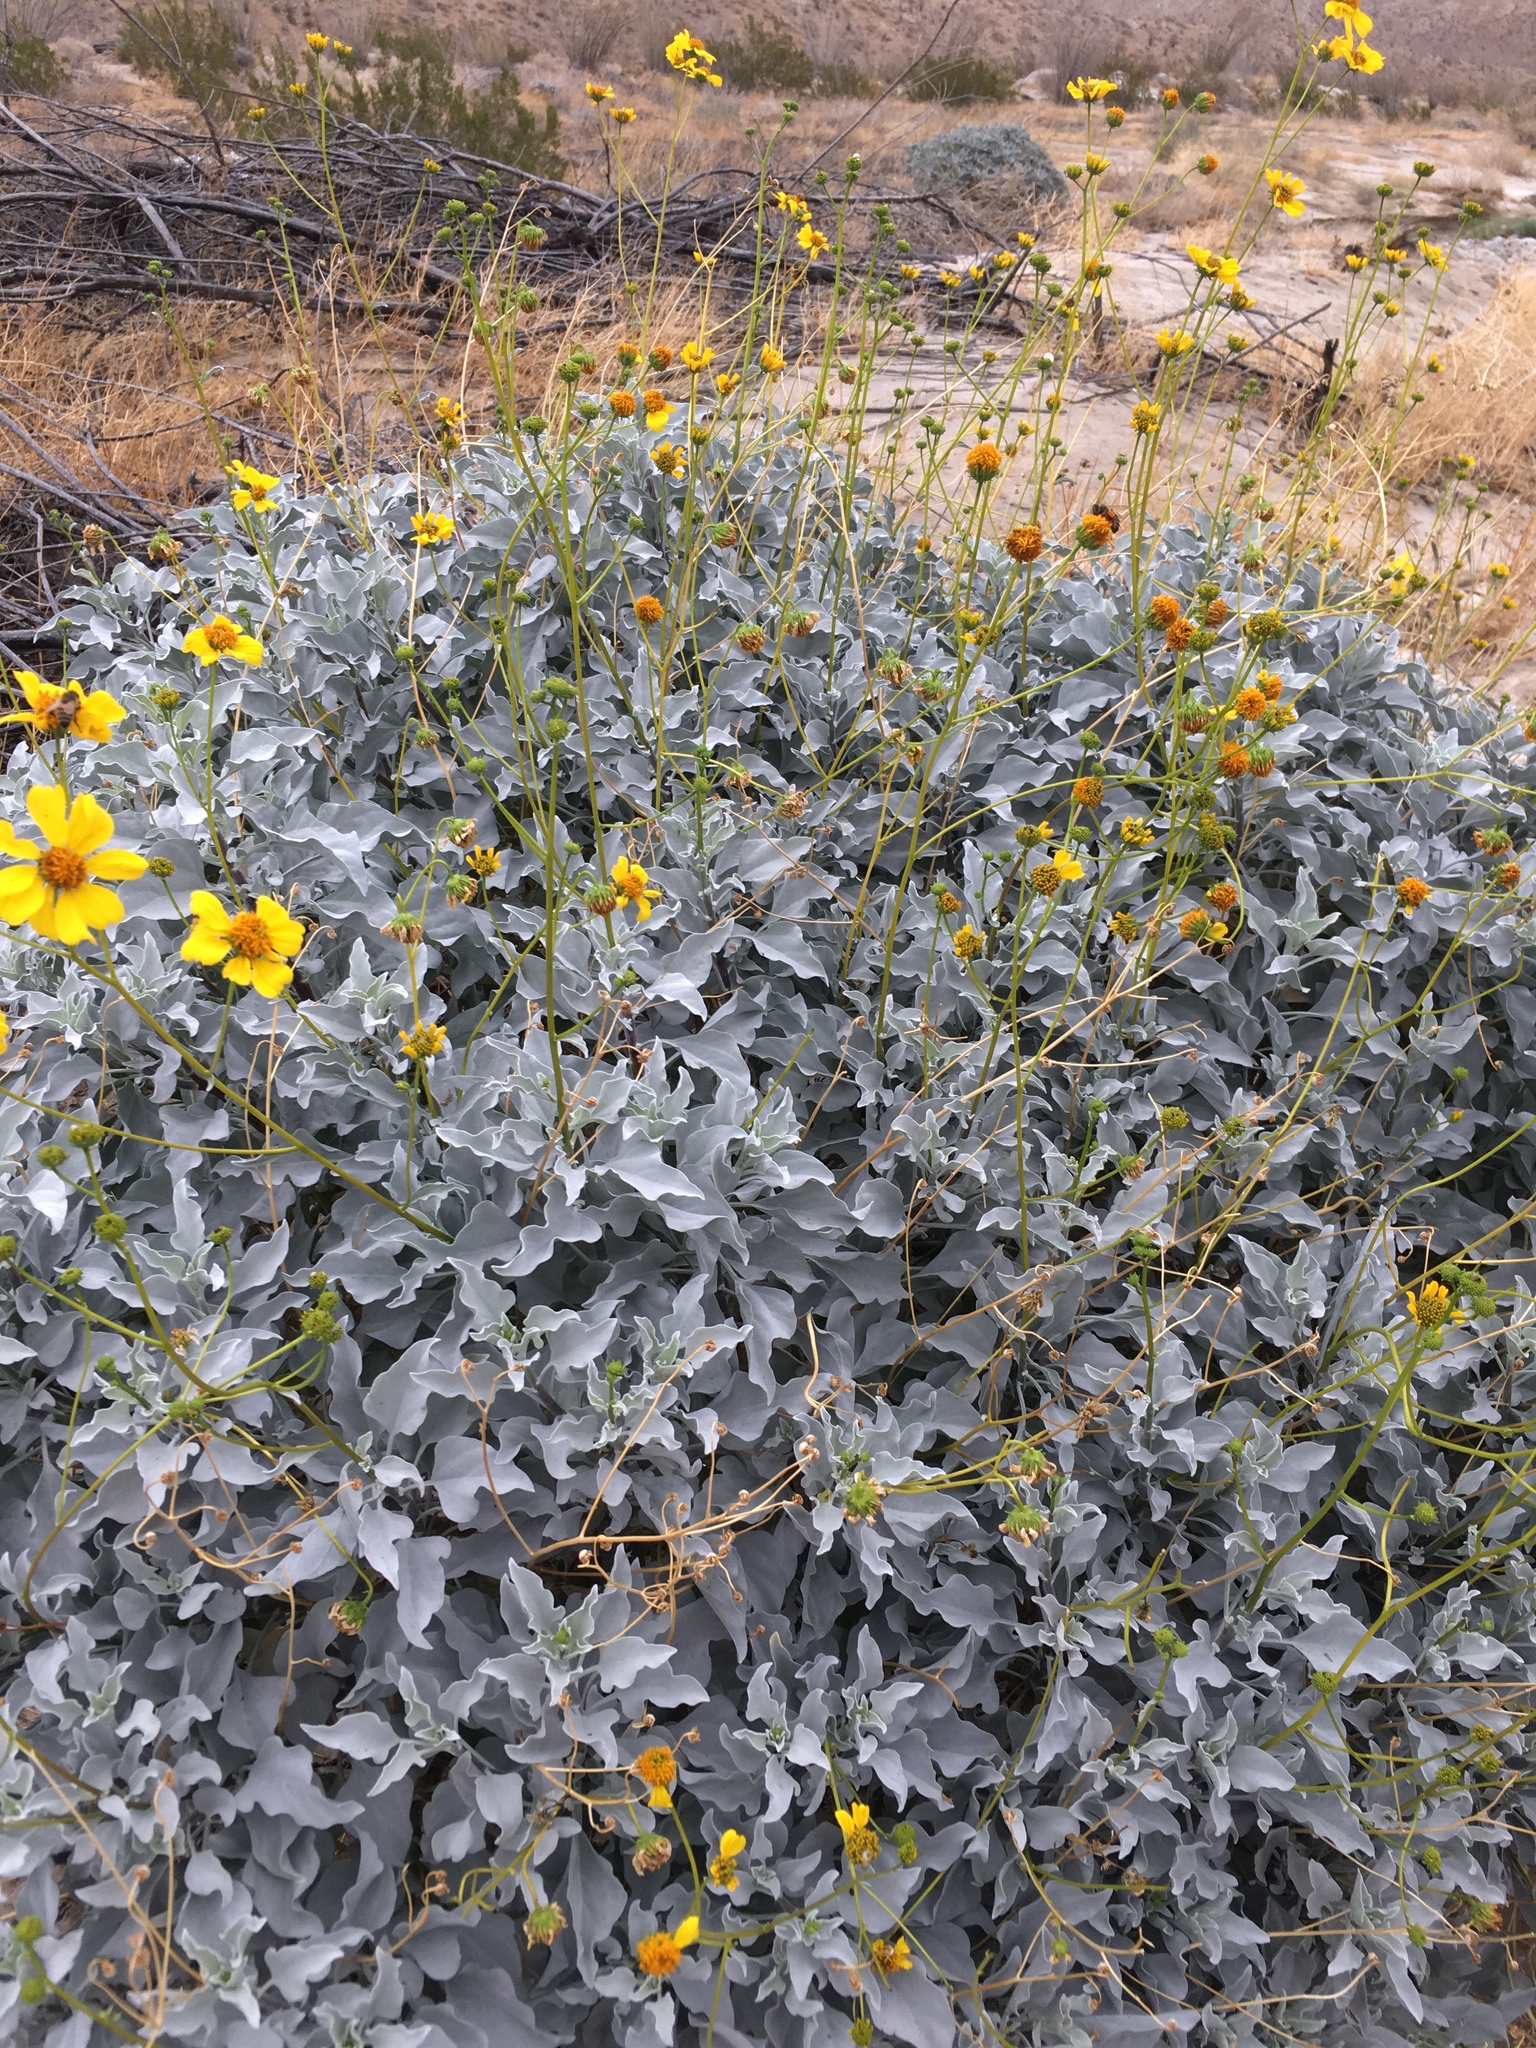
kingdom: Plantae
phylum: Tracheophyta
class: Magnoliopsida
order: Asterales
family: Asteraceae
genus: Encelia
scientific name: Encelia farinosa
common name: Brittlebush
